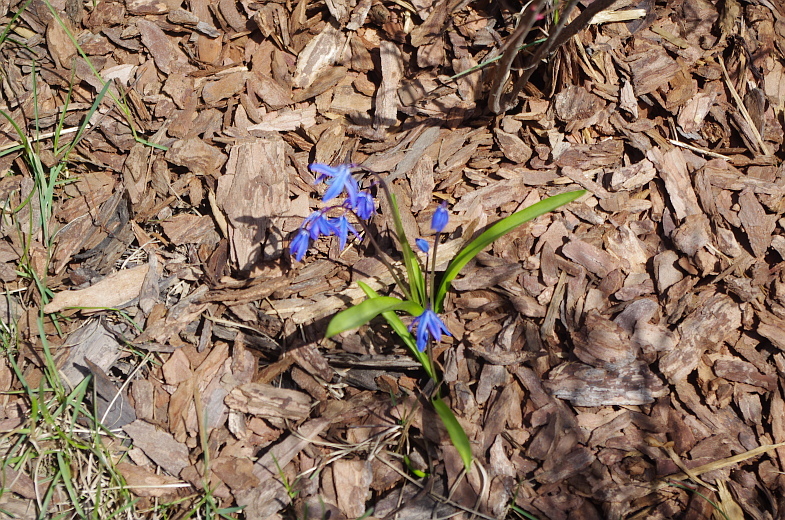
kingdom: Plantae
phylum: Tracheophyta
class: Liliopsida
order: Asparagales
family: Asparagaceae
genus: Scilla
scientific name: Scilla siberica
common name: Siberian squill
